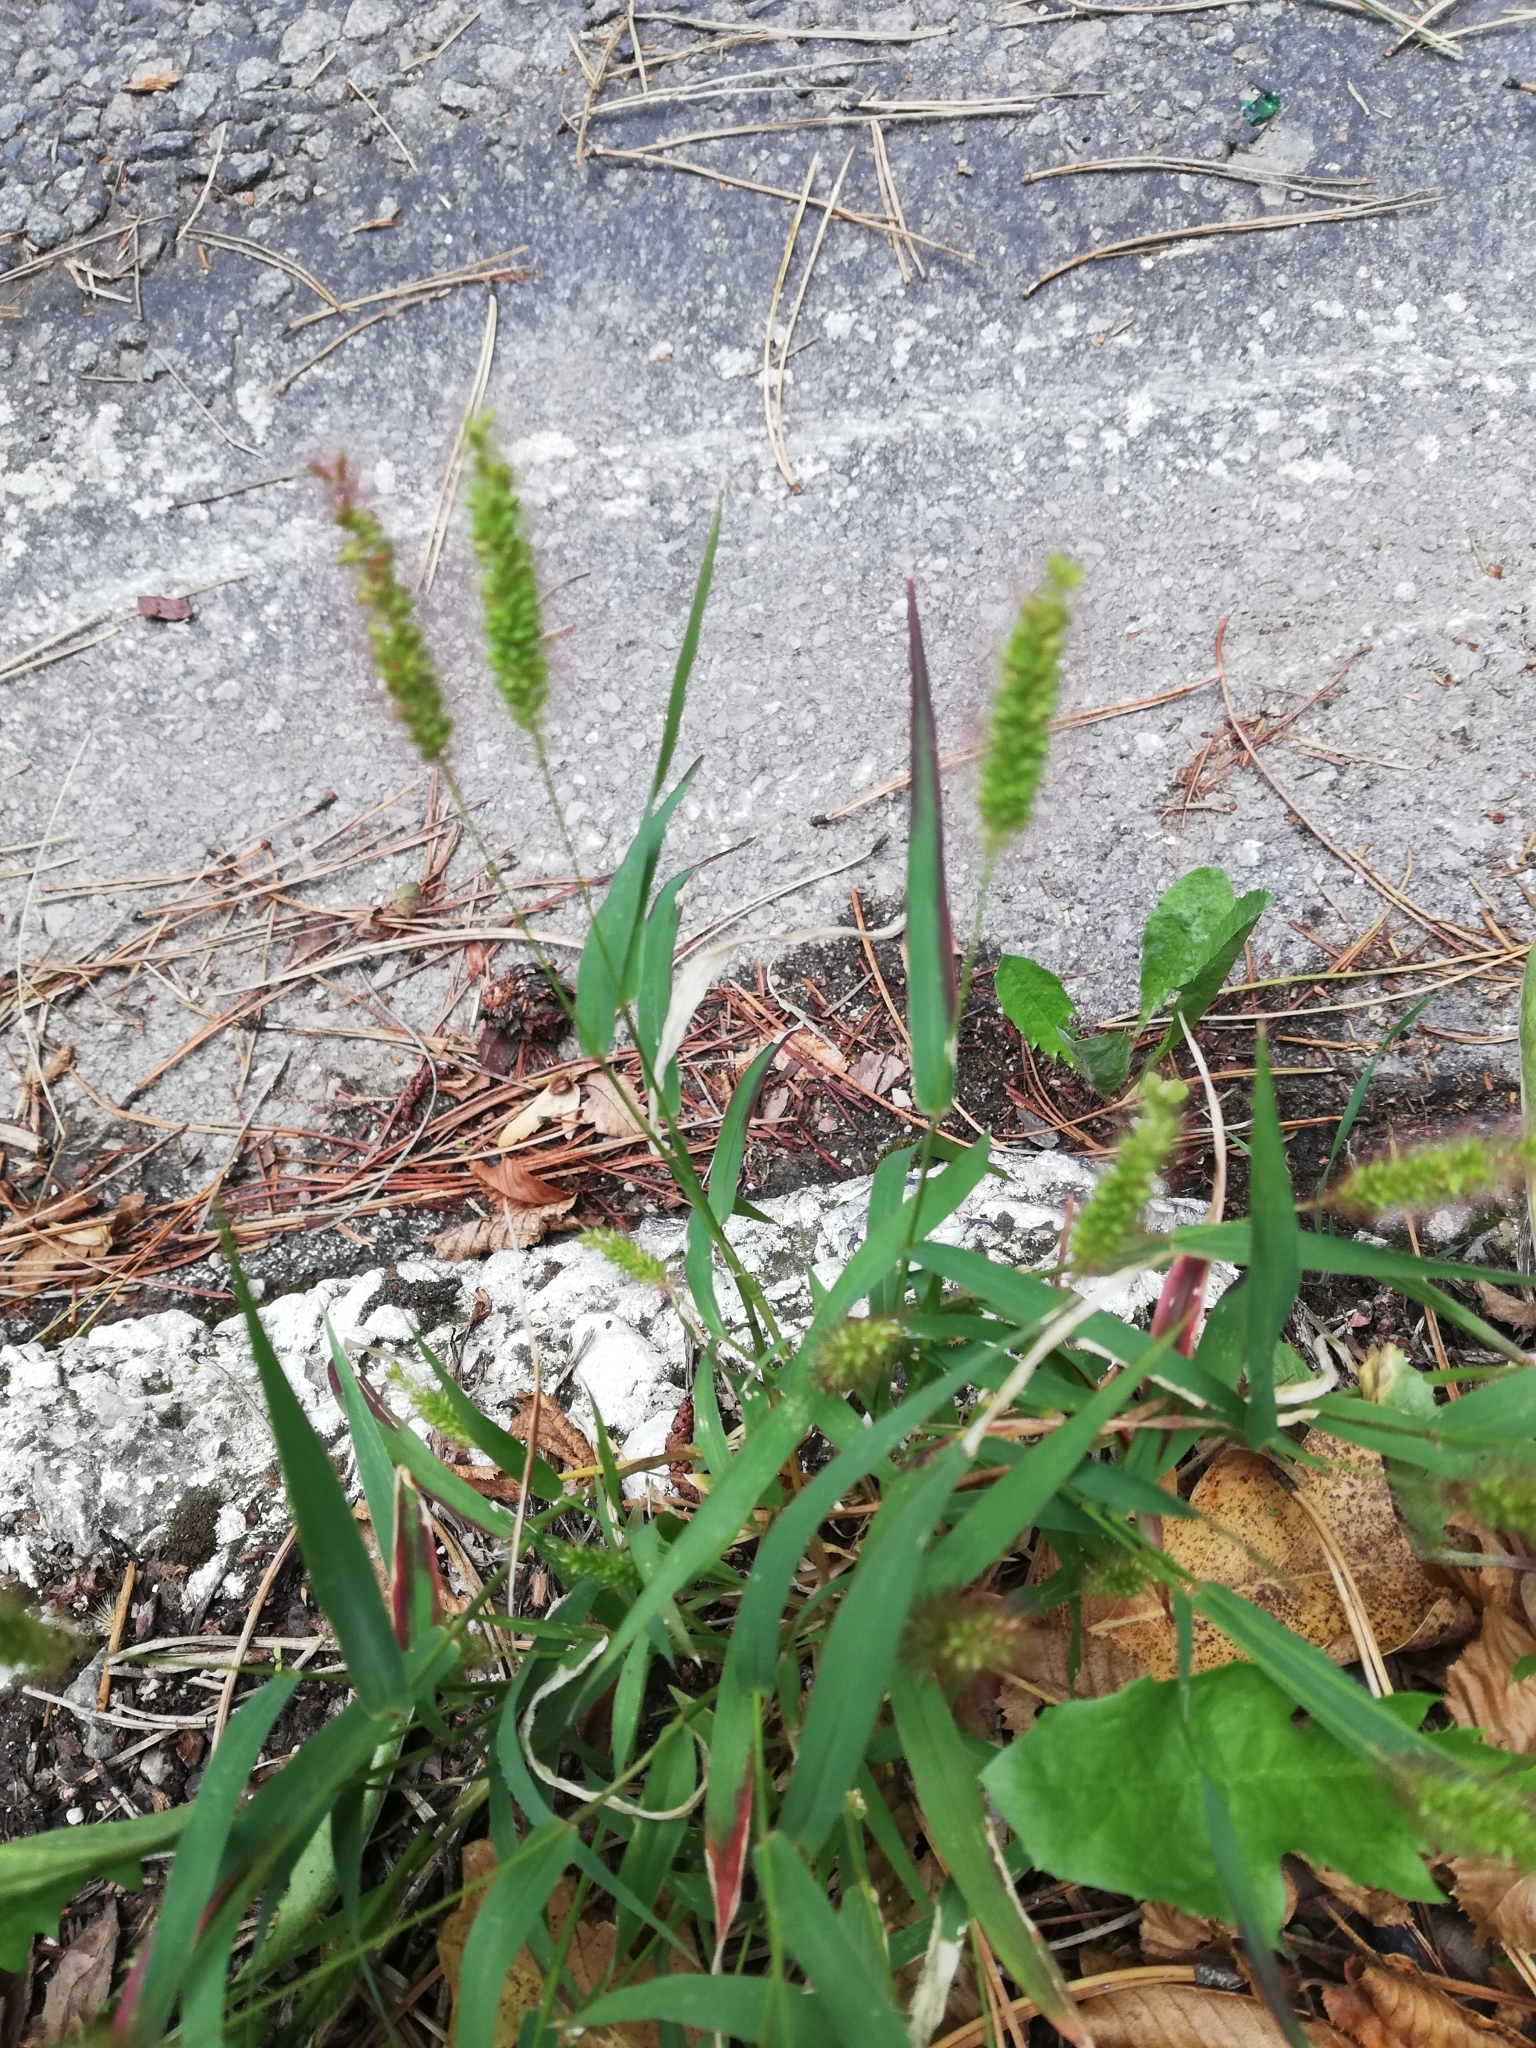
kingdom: Plantae
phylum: Tracheophyta
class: Liliopsida
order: Poales
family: Poaceae
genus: Setaria
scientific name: Setaria viridis
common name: Green bristlegrass
